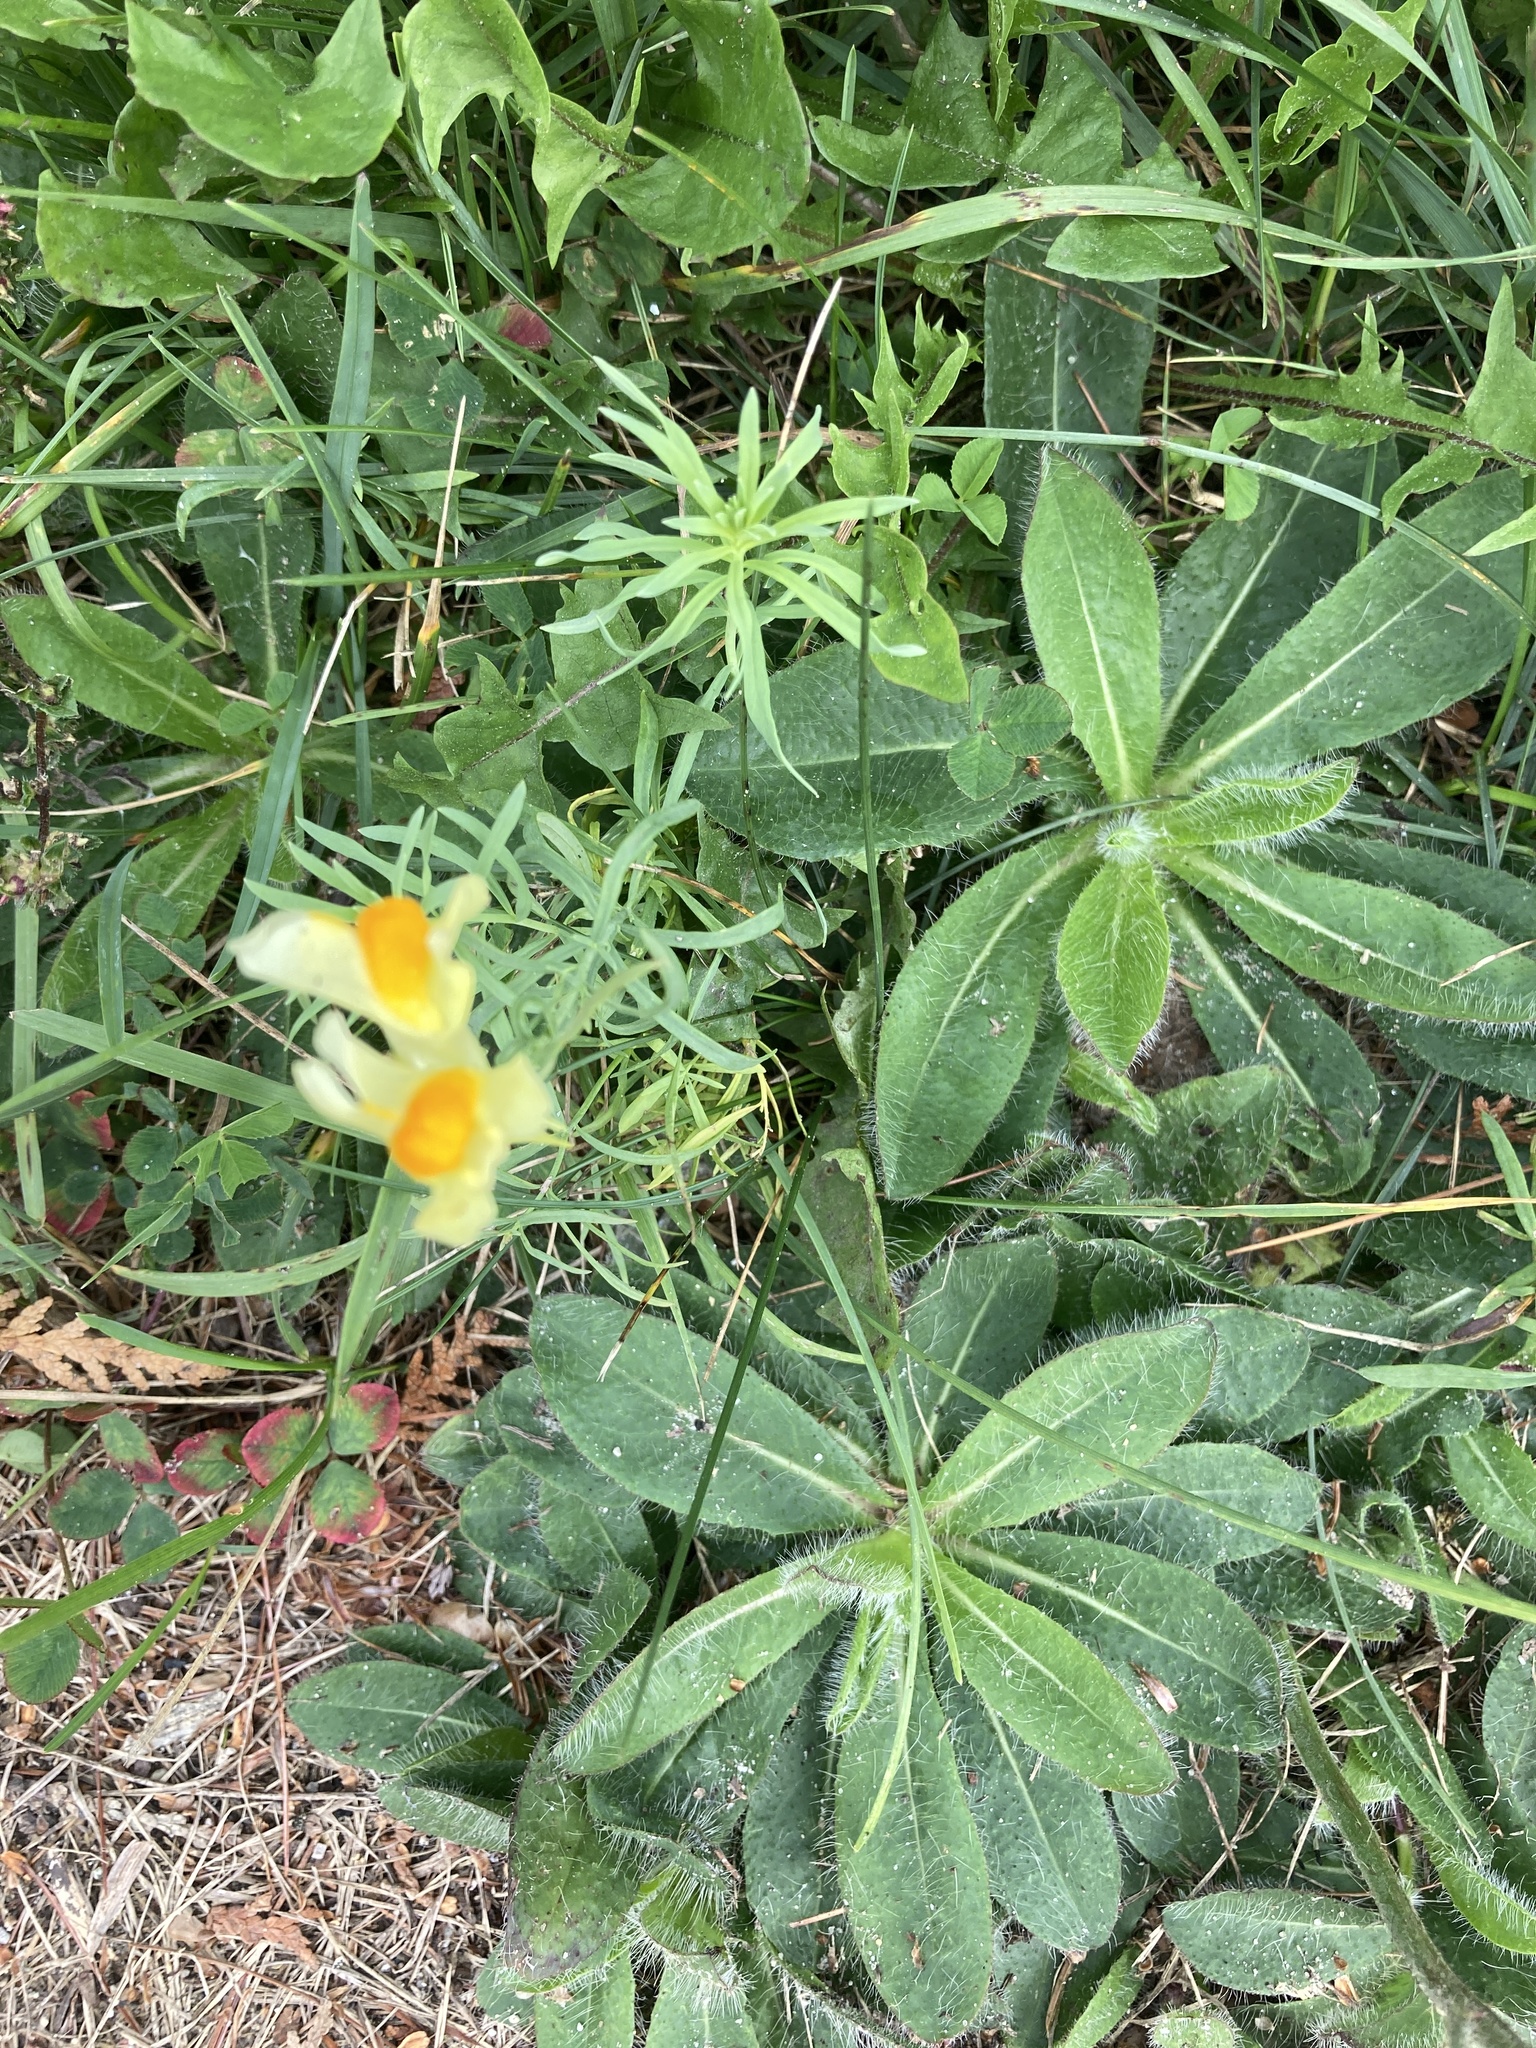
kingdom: Plantae
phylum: Tracheophyta
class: Magnoliopsida
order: Lamiales
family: Plantaginaceae
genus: Linaria
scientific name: Linaria vulgaris
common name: Butter and eggs
